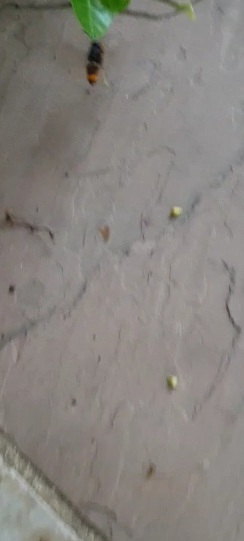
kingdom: Animalia
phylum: Arthropoda
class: Insecta
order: Hymenoptera
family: Vespidae
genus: Vespa
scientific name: Vespa velutina
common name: Asian hornet
